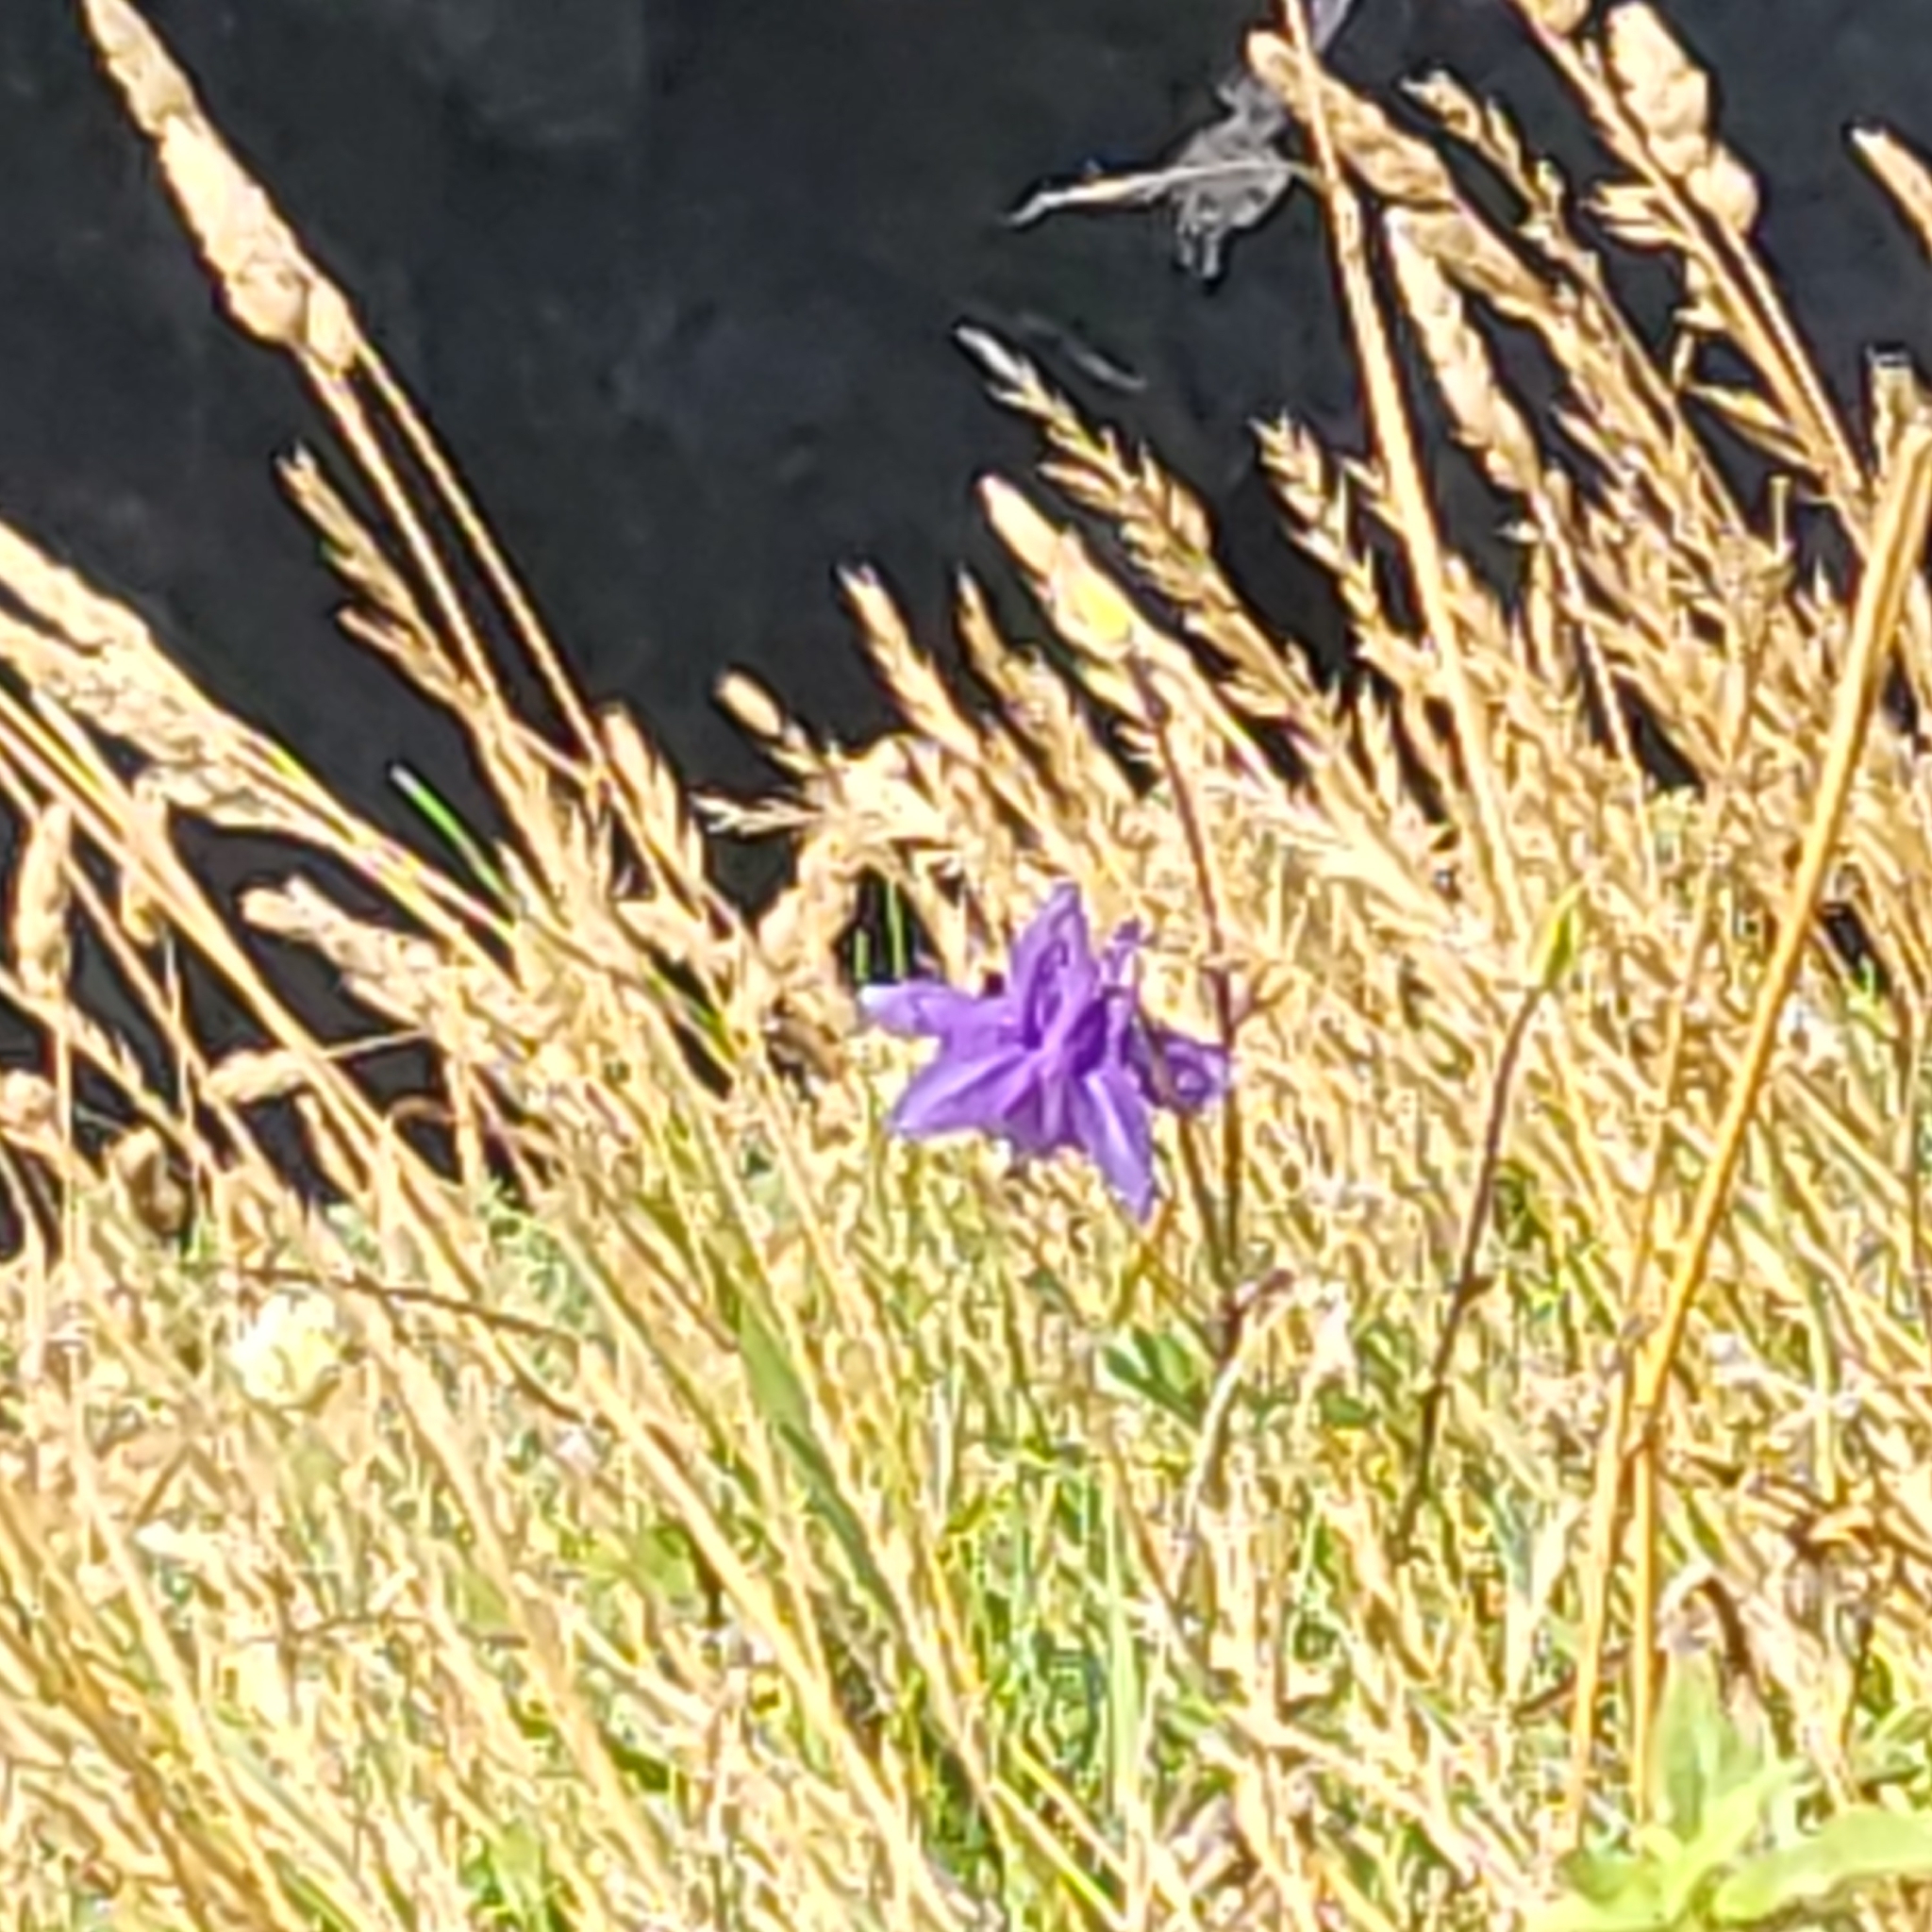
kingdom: Plantae
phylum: Tracheophyta
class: Magnoliopsida
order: Ranunculales
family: Ranunculaceae
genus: Aquilegia
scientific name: Aquilegia vulgaris
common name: Columbine
